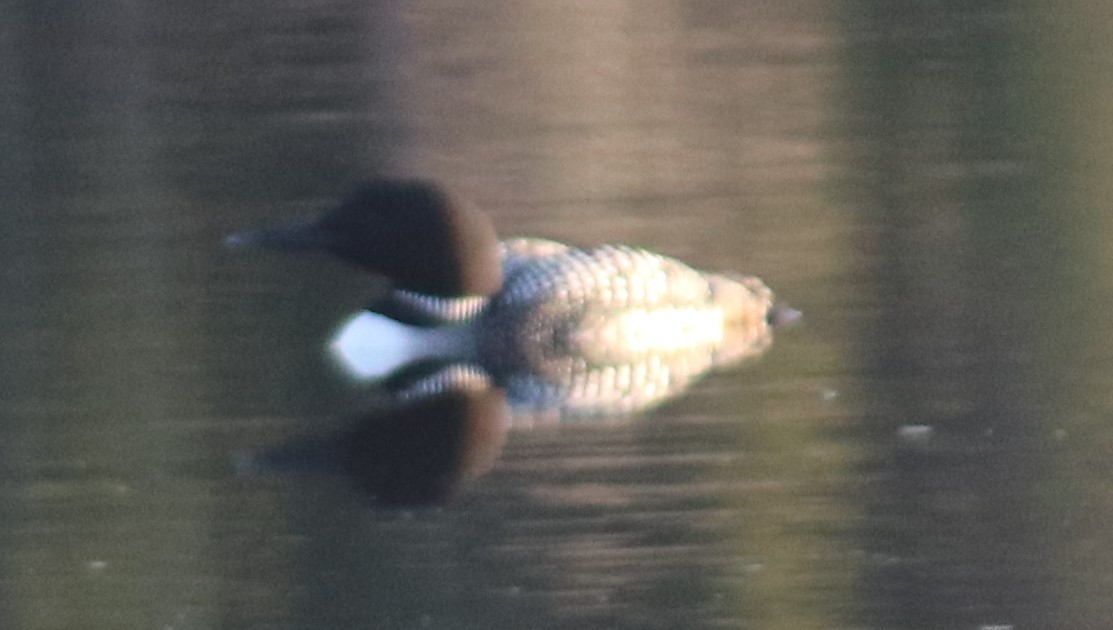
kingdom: Animalia
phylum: Chordata
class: Aves
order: Gaviiformes
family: Gaviidae
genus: Gavia
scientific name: Gavia immer
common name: Common loon
